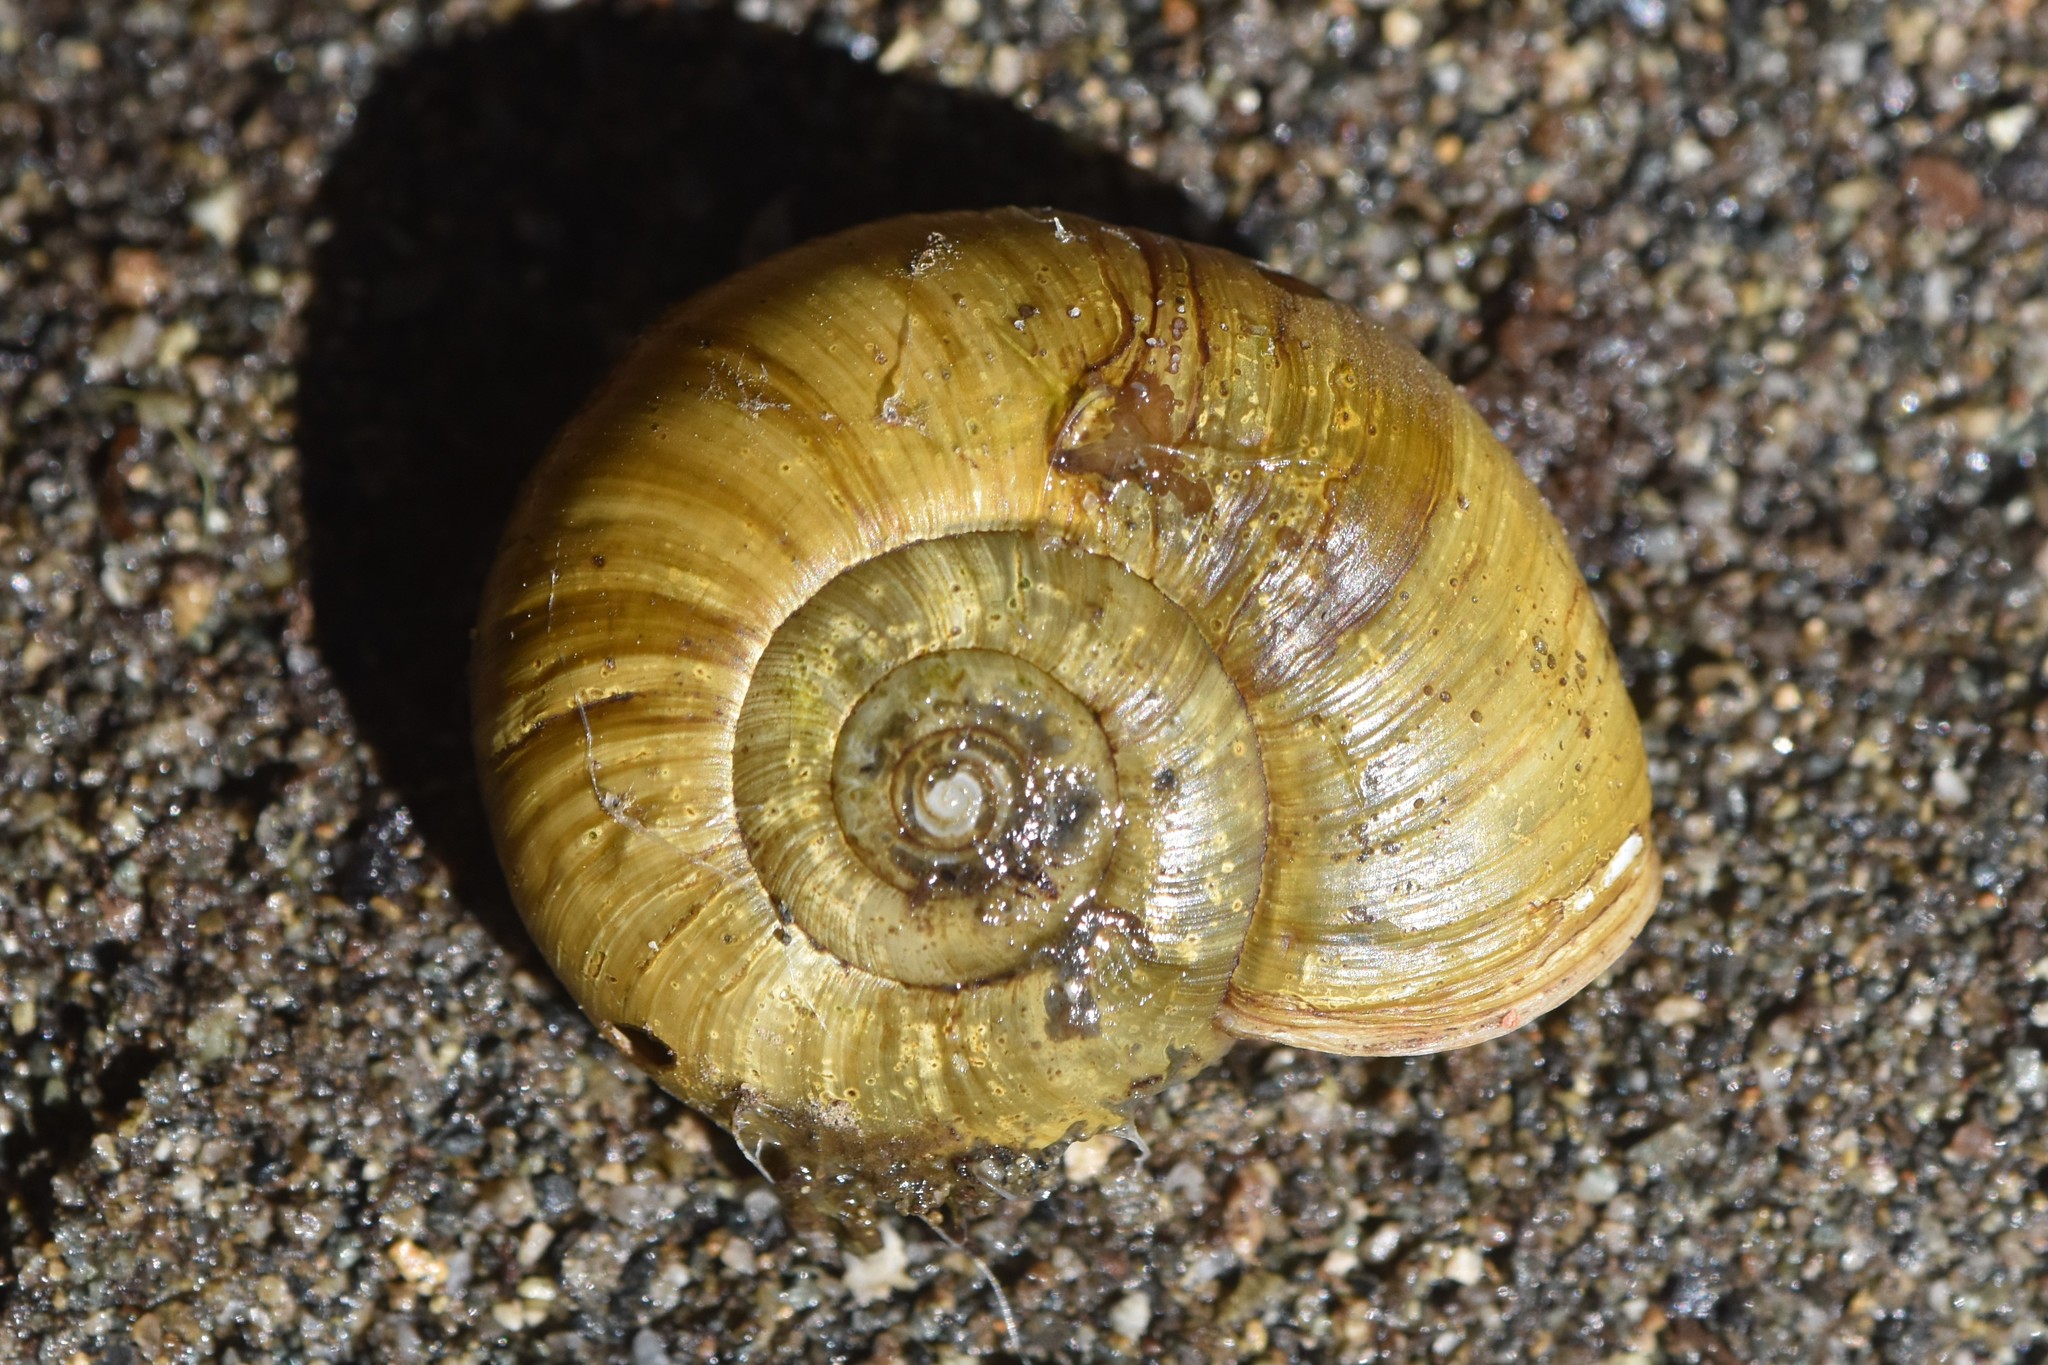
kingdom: Animalia
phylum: Mollusca
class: Gastropoda
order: Stylommatophora
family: Haplotrematidae
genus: Haplotrema
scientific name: Haplotrema vancouverense
